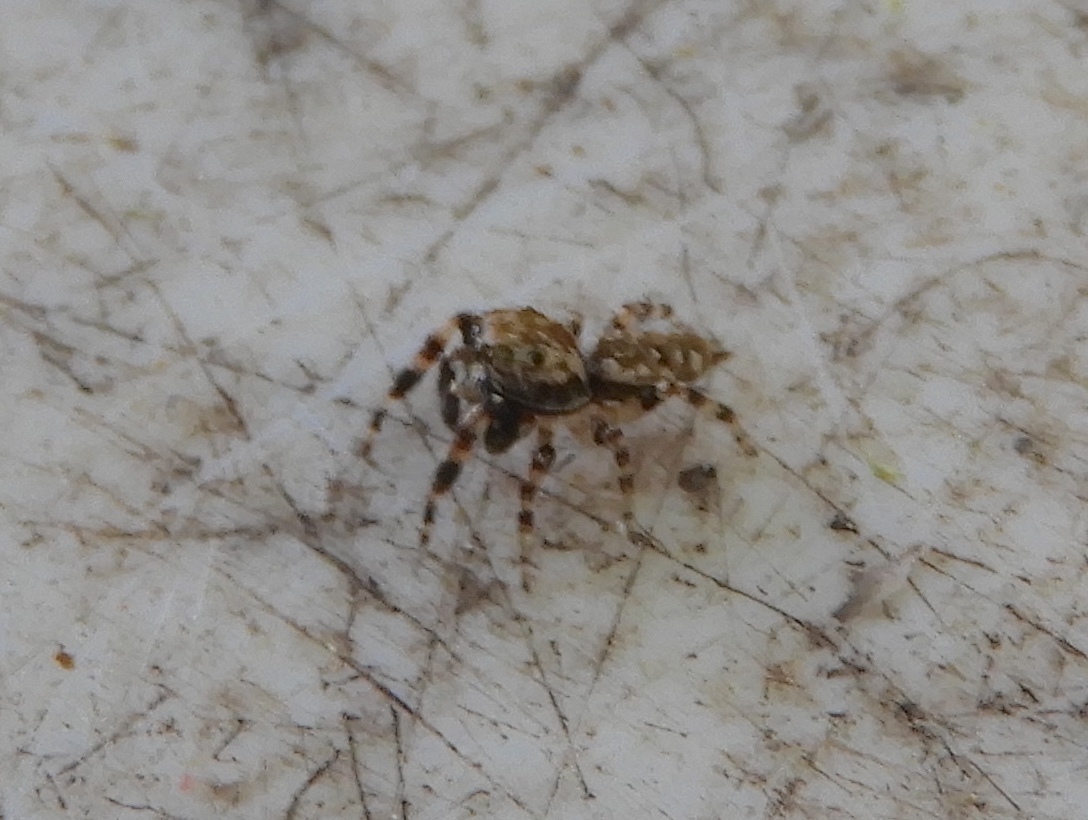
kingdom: Animalia
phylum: Arthropoda
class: Arachnida
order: Araneae
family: Salticidae
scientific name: Salticidae
